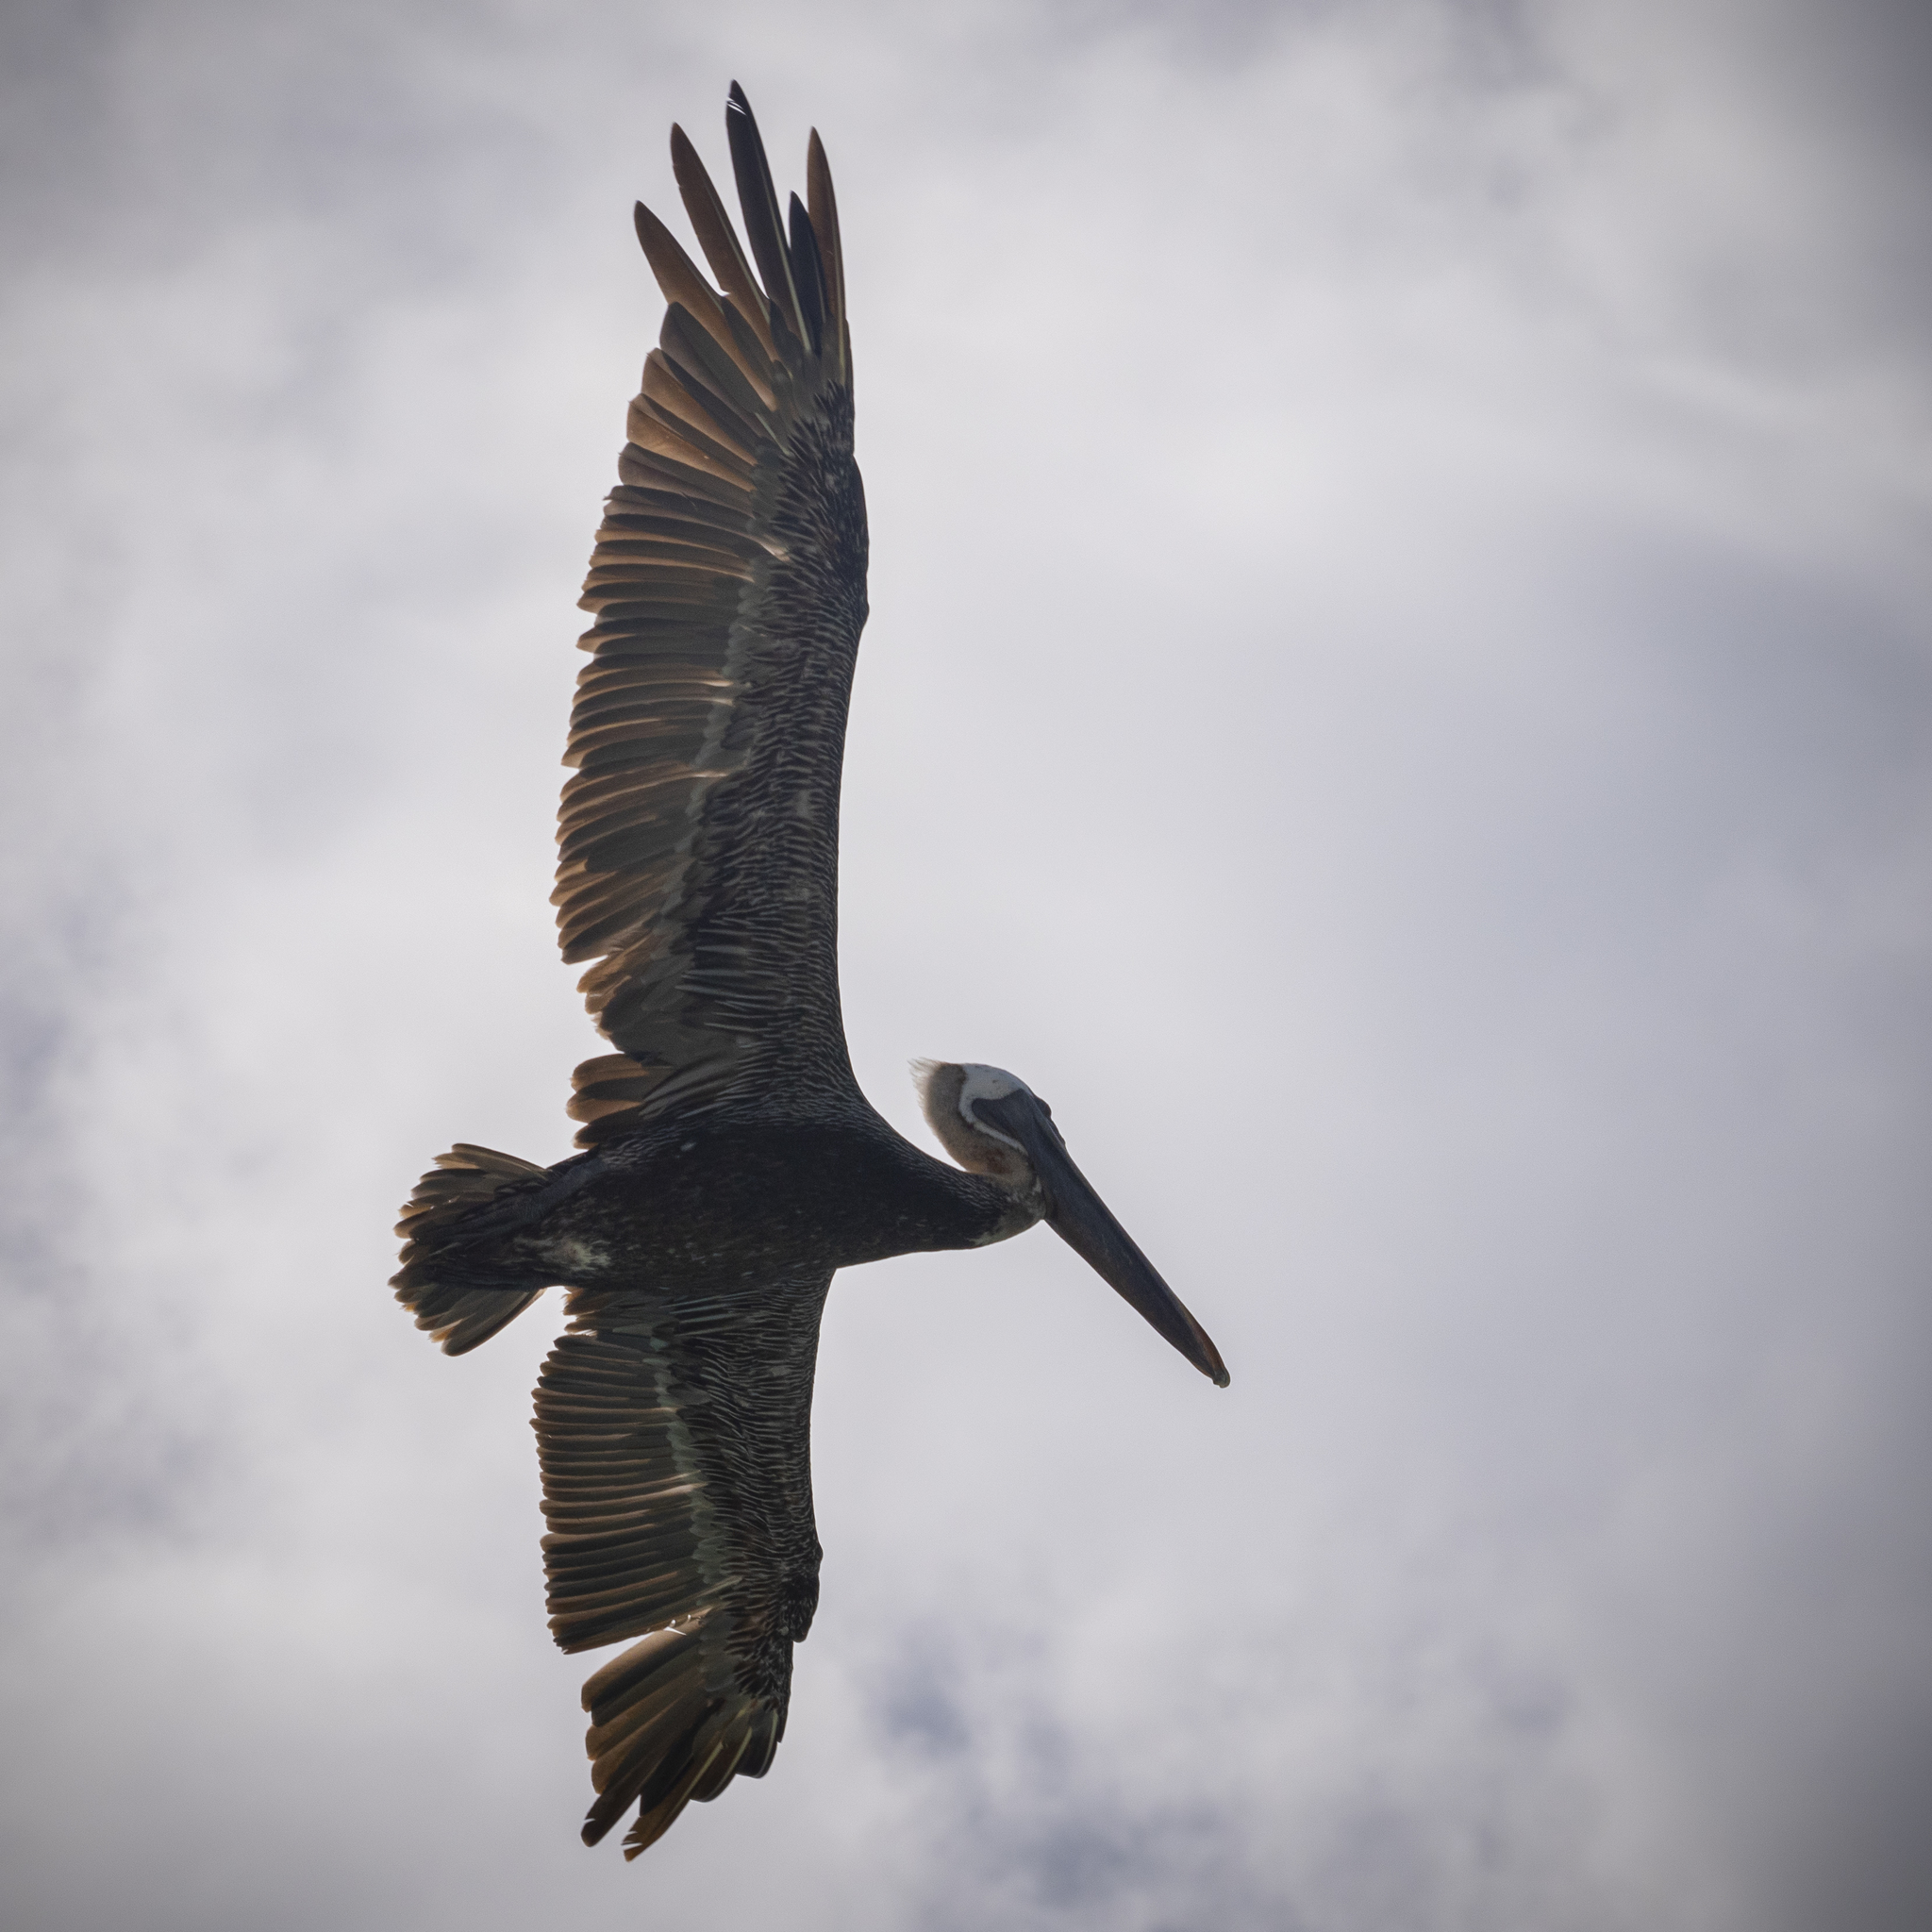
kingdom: Animalia
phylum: Chordata
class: Aves
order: Pelecaniformes
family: Pelecanidae
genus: Pelecanus
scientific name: Pelecanus occidentalis
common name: Brown pelican
